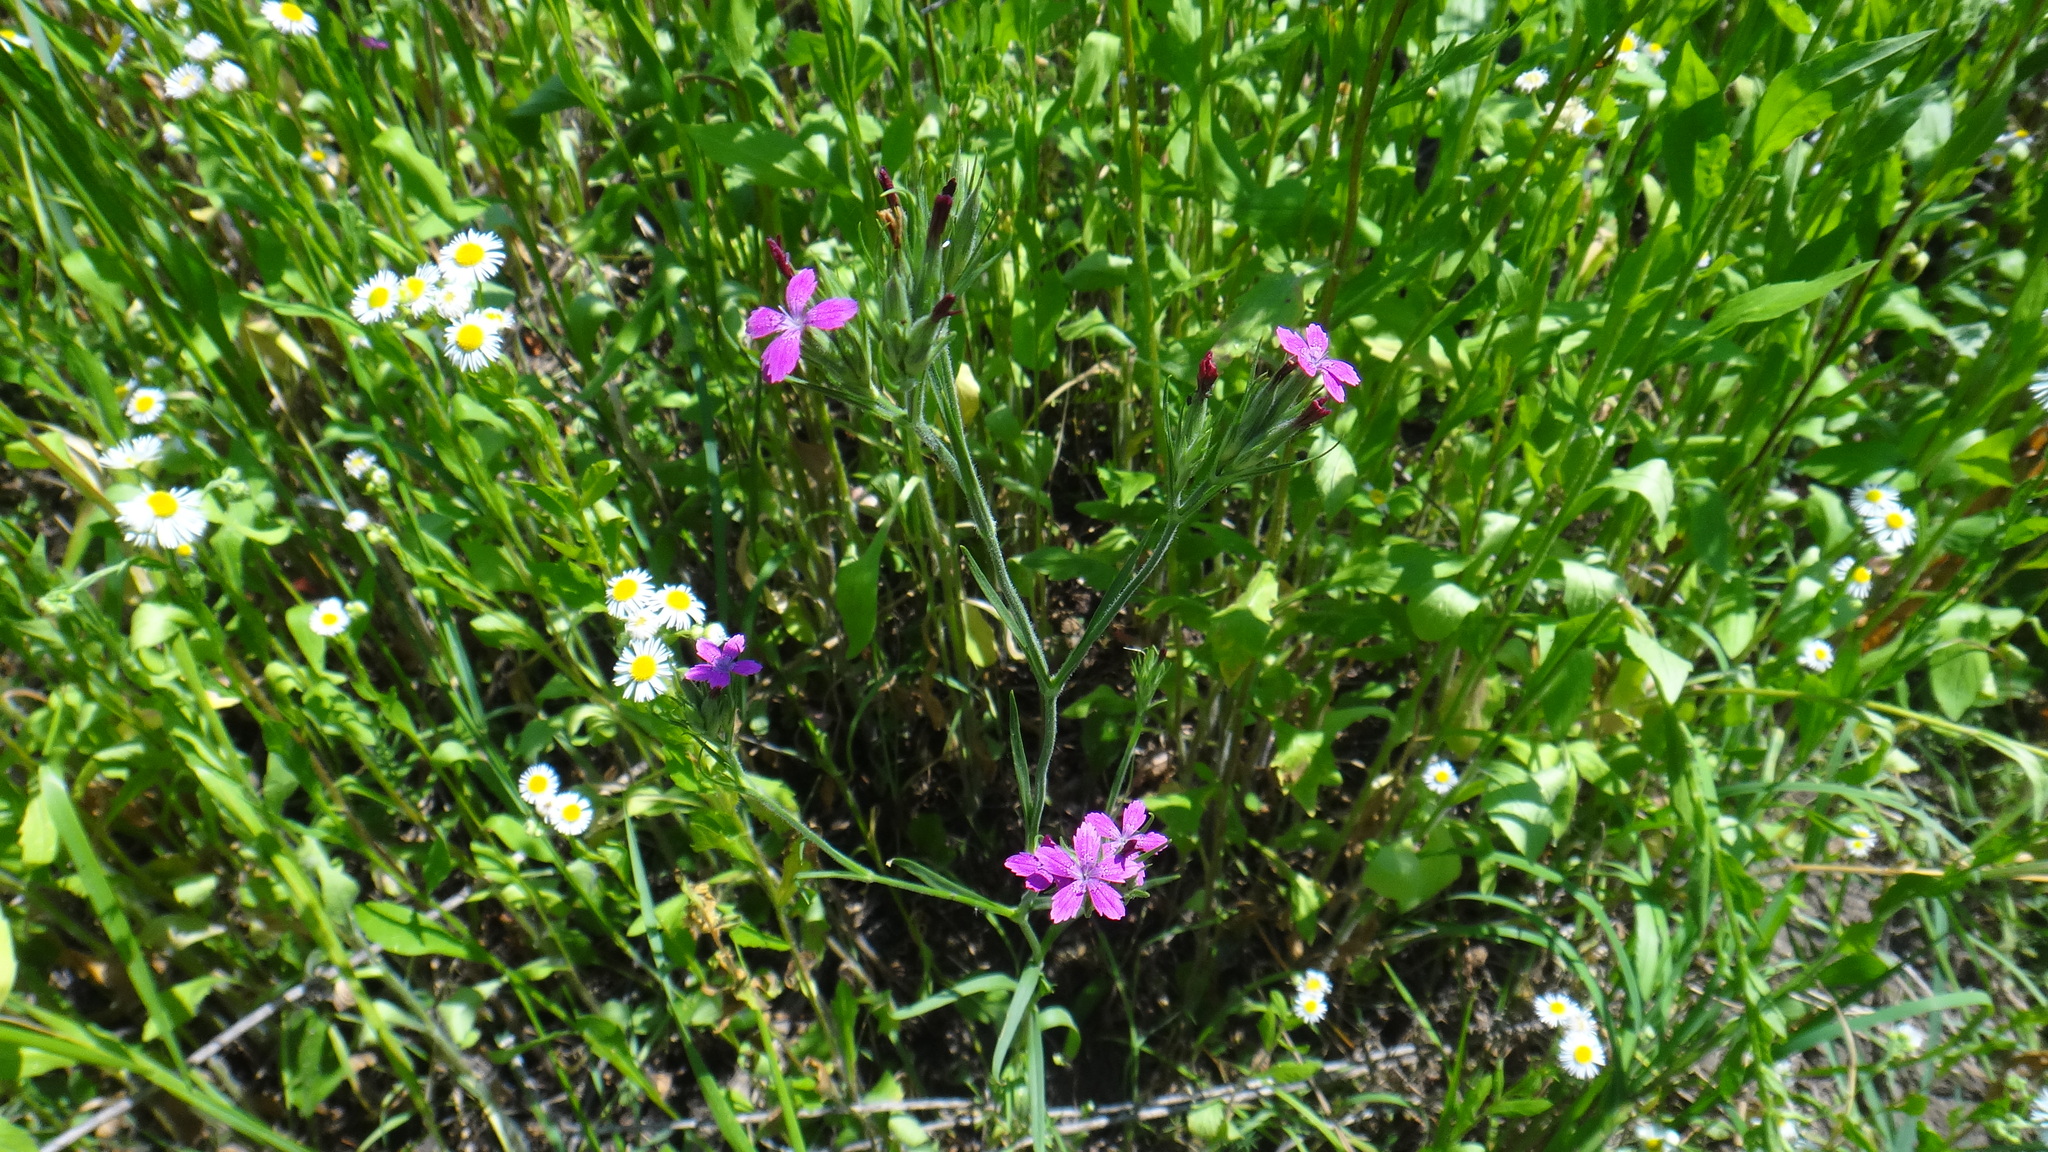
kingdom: Plantae
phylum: Tracheophyta
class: Magnoliopsida
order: Caryophyllales
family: Caryophyllaceae
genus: Dianthus
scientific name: Dianthus armeria
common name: Deptford pink
